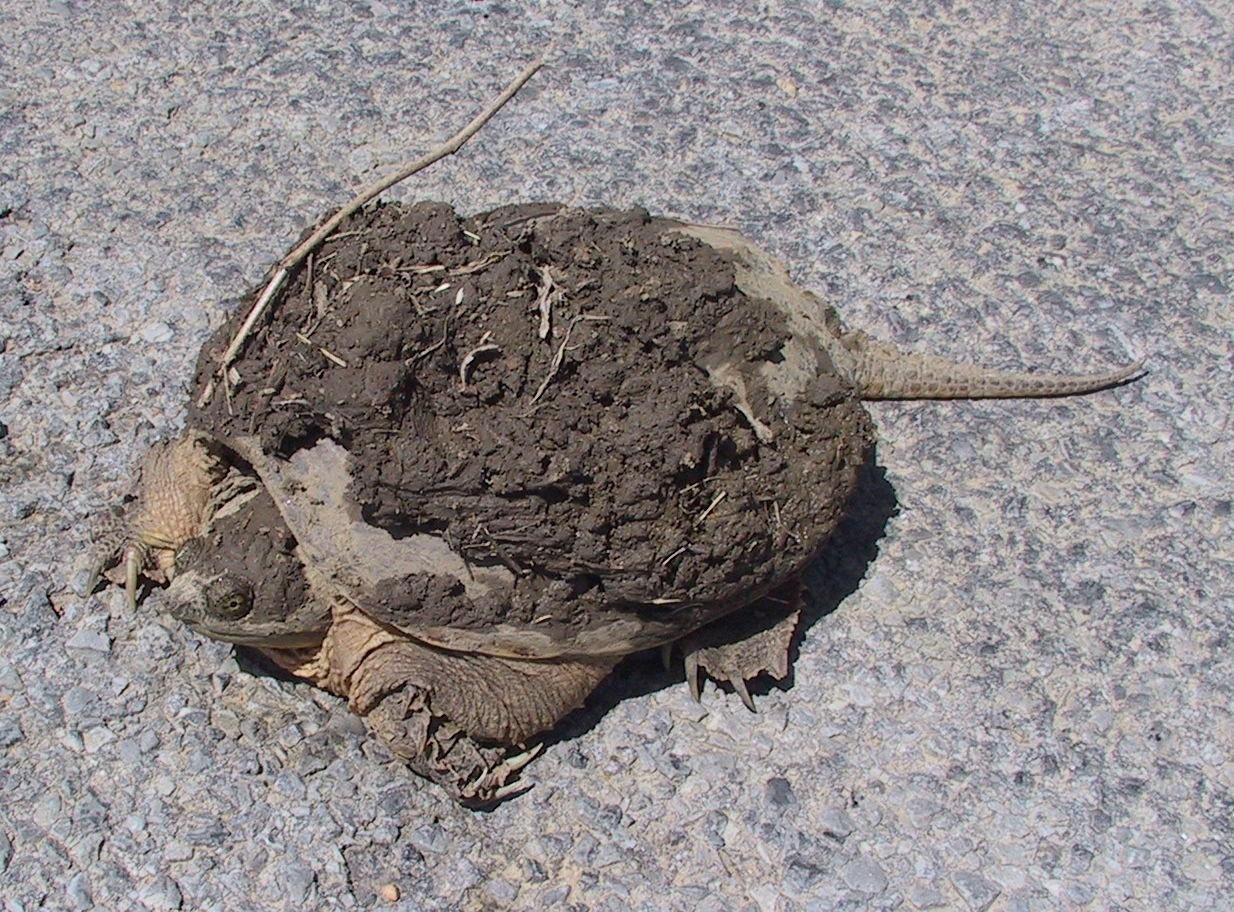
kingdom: Animalia
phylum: Chordata
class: Testudines
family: Chelydridae
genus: Chelydra
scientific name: Chelydra serpentina
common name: Common snapping turtle
